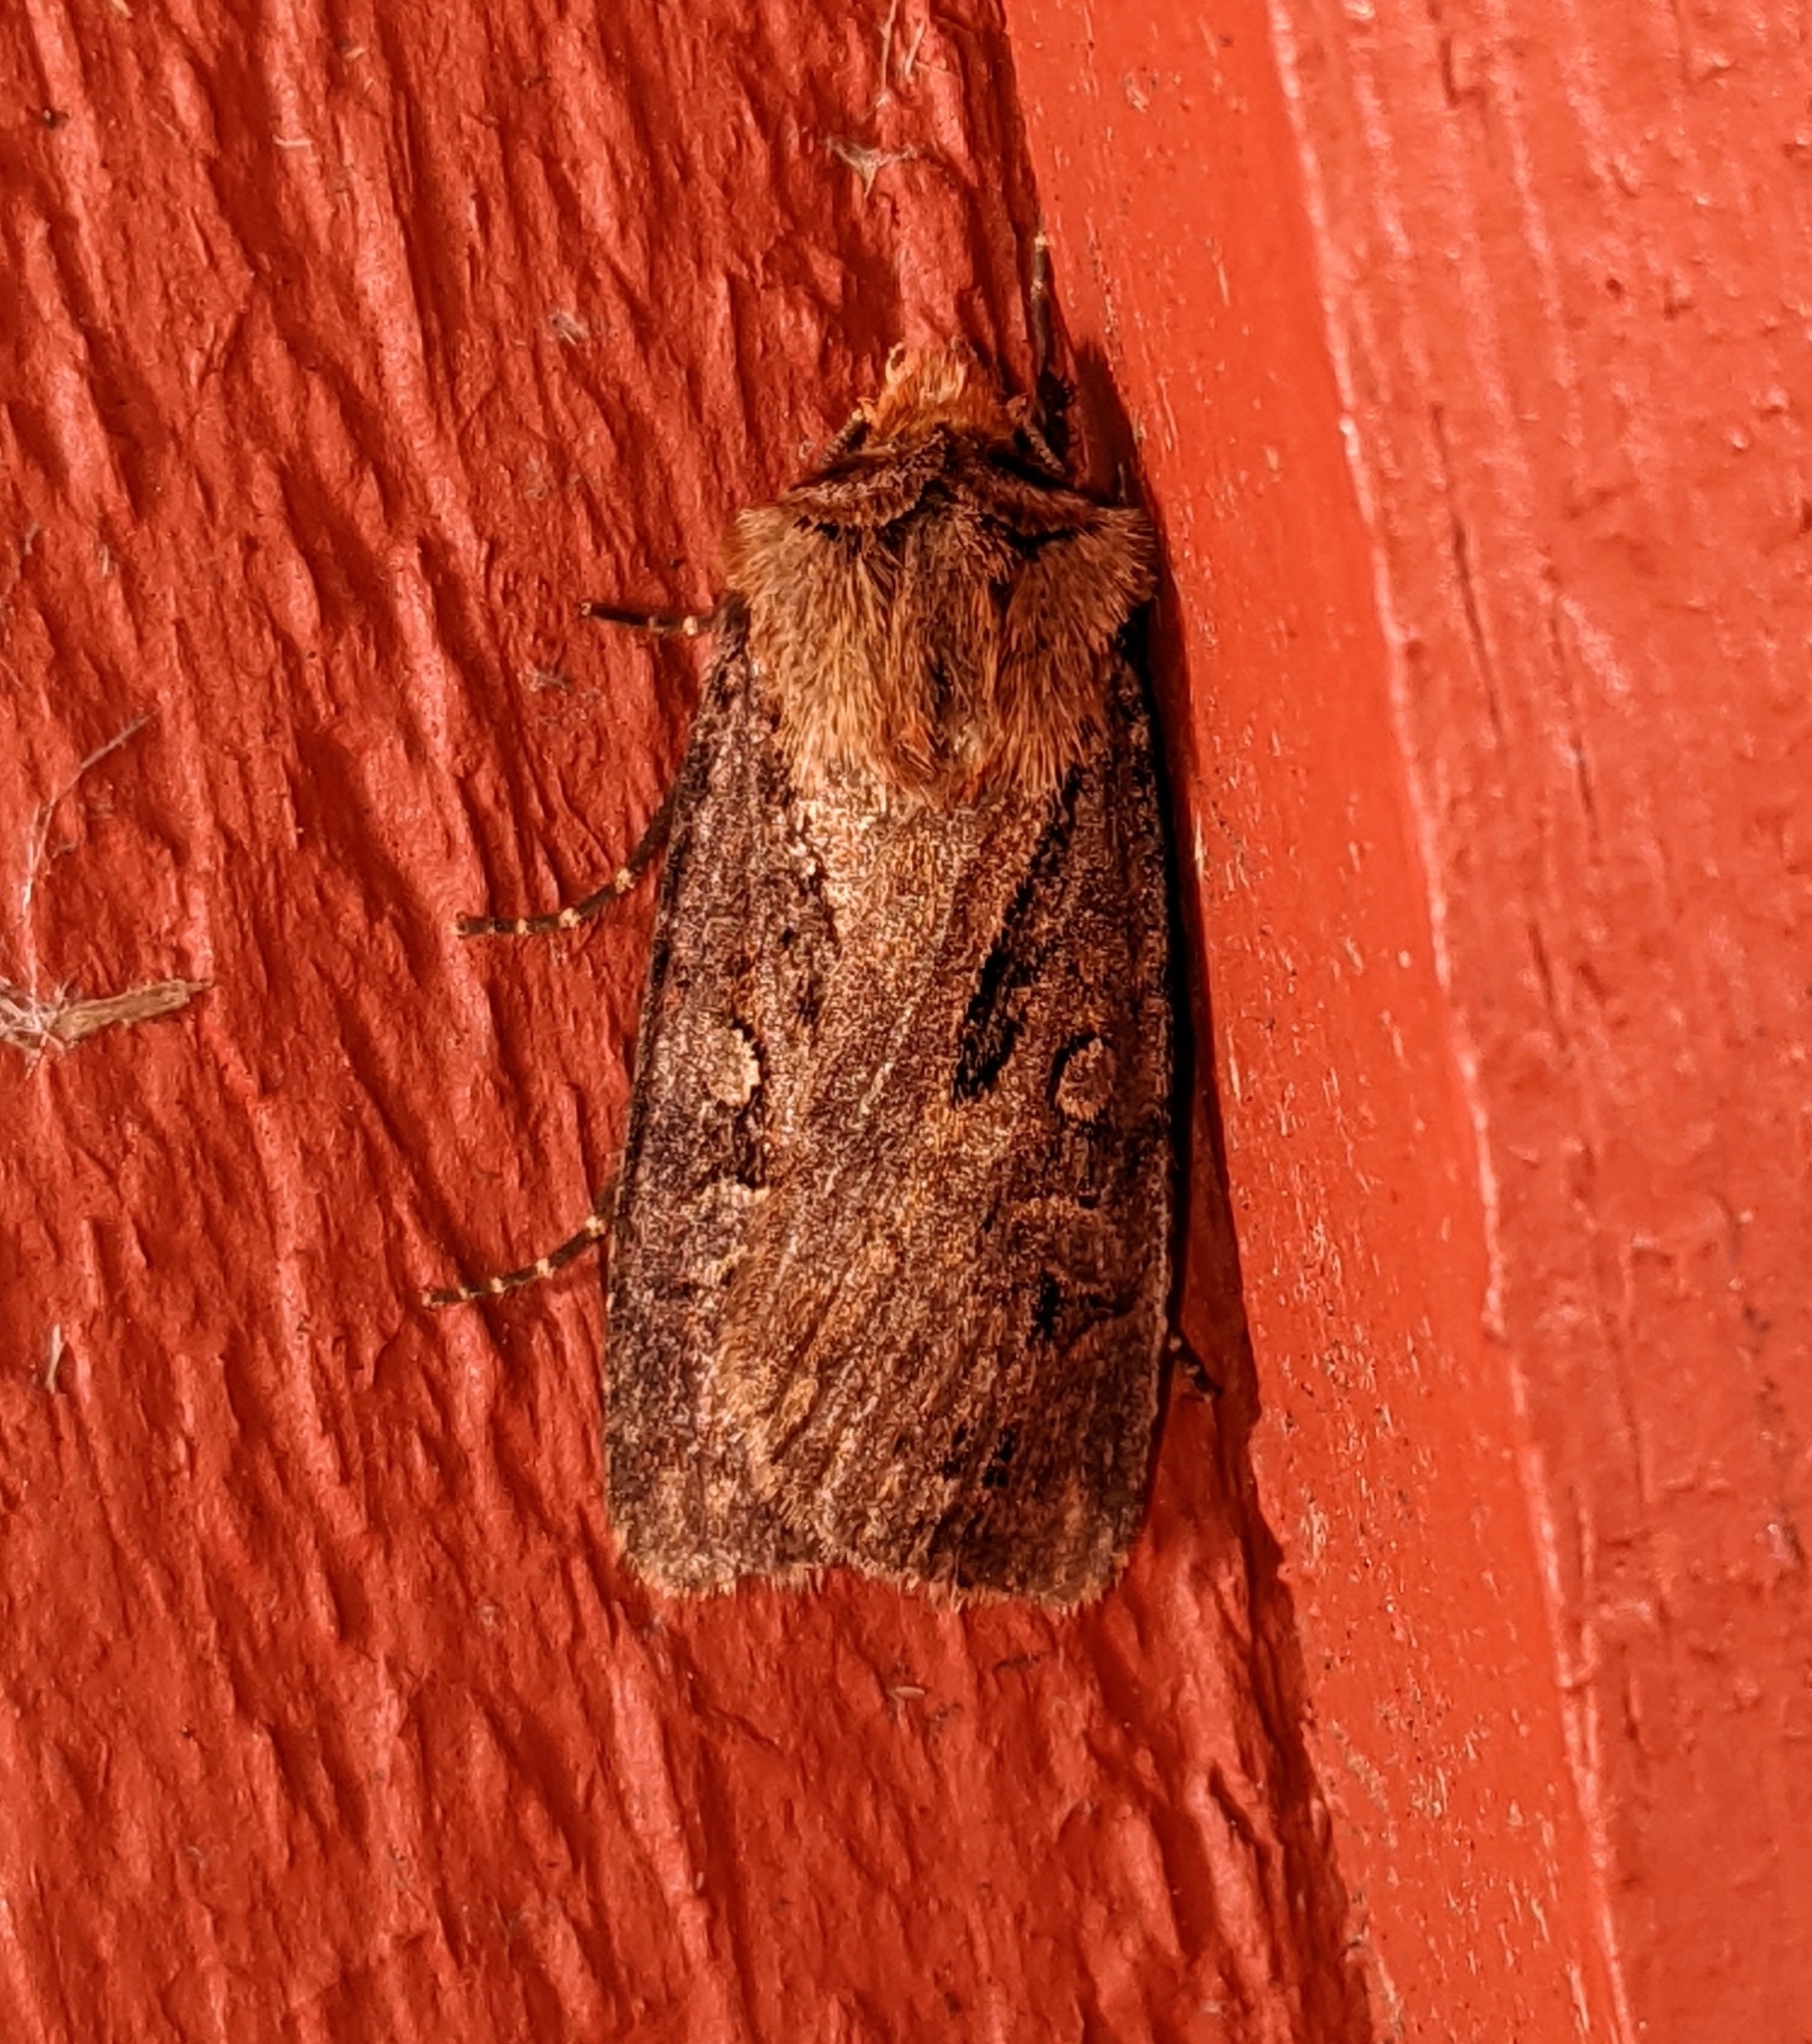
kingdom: Animalia
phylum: Arthropoda
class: Insecta
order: Lepidoptera
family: Noctuidae
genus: Agrotis
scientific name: Agrotis vancouverensis
